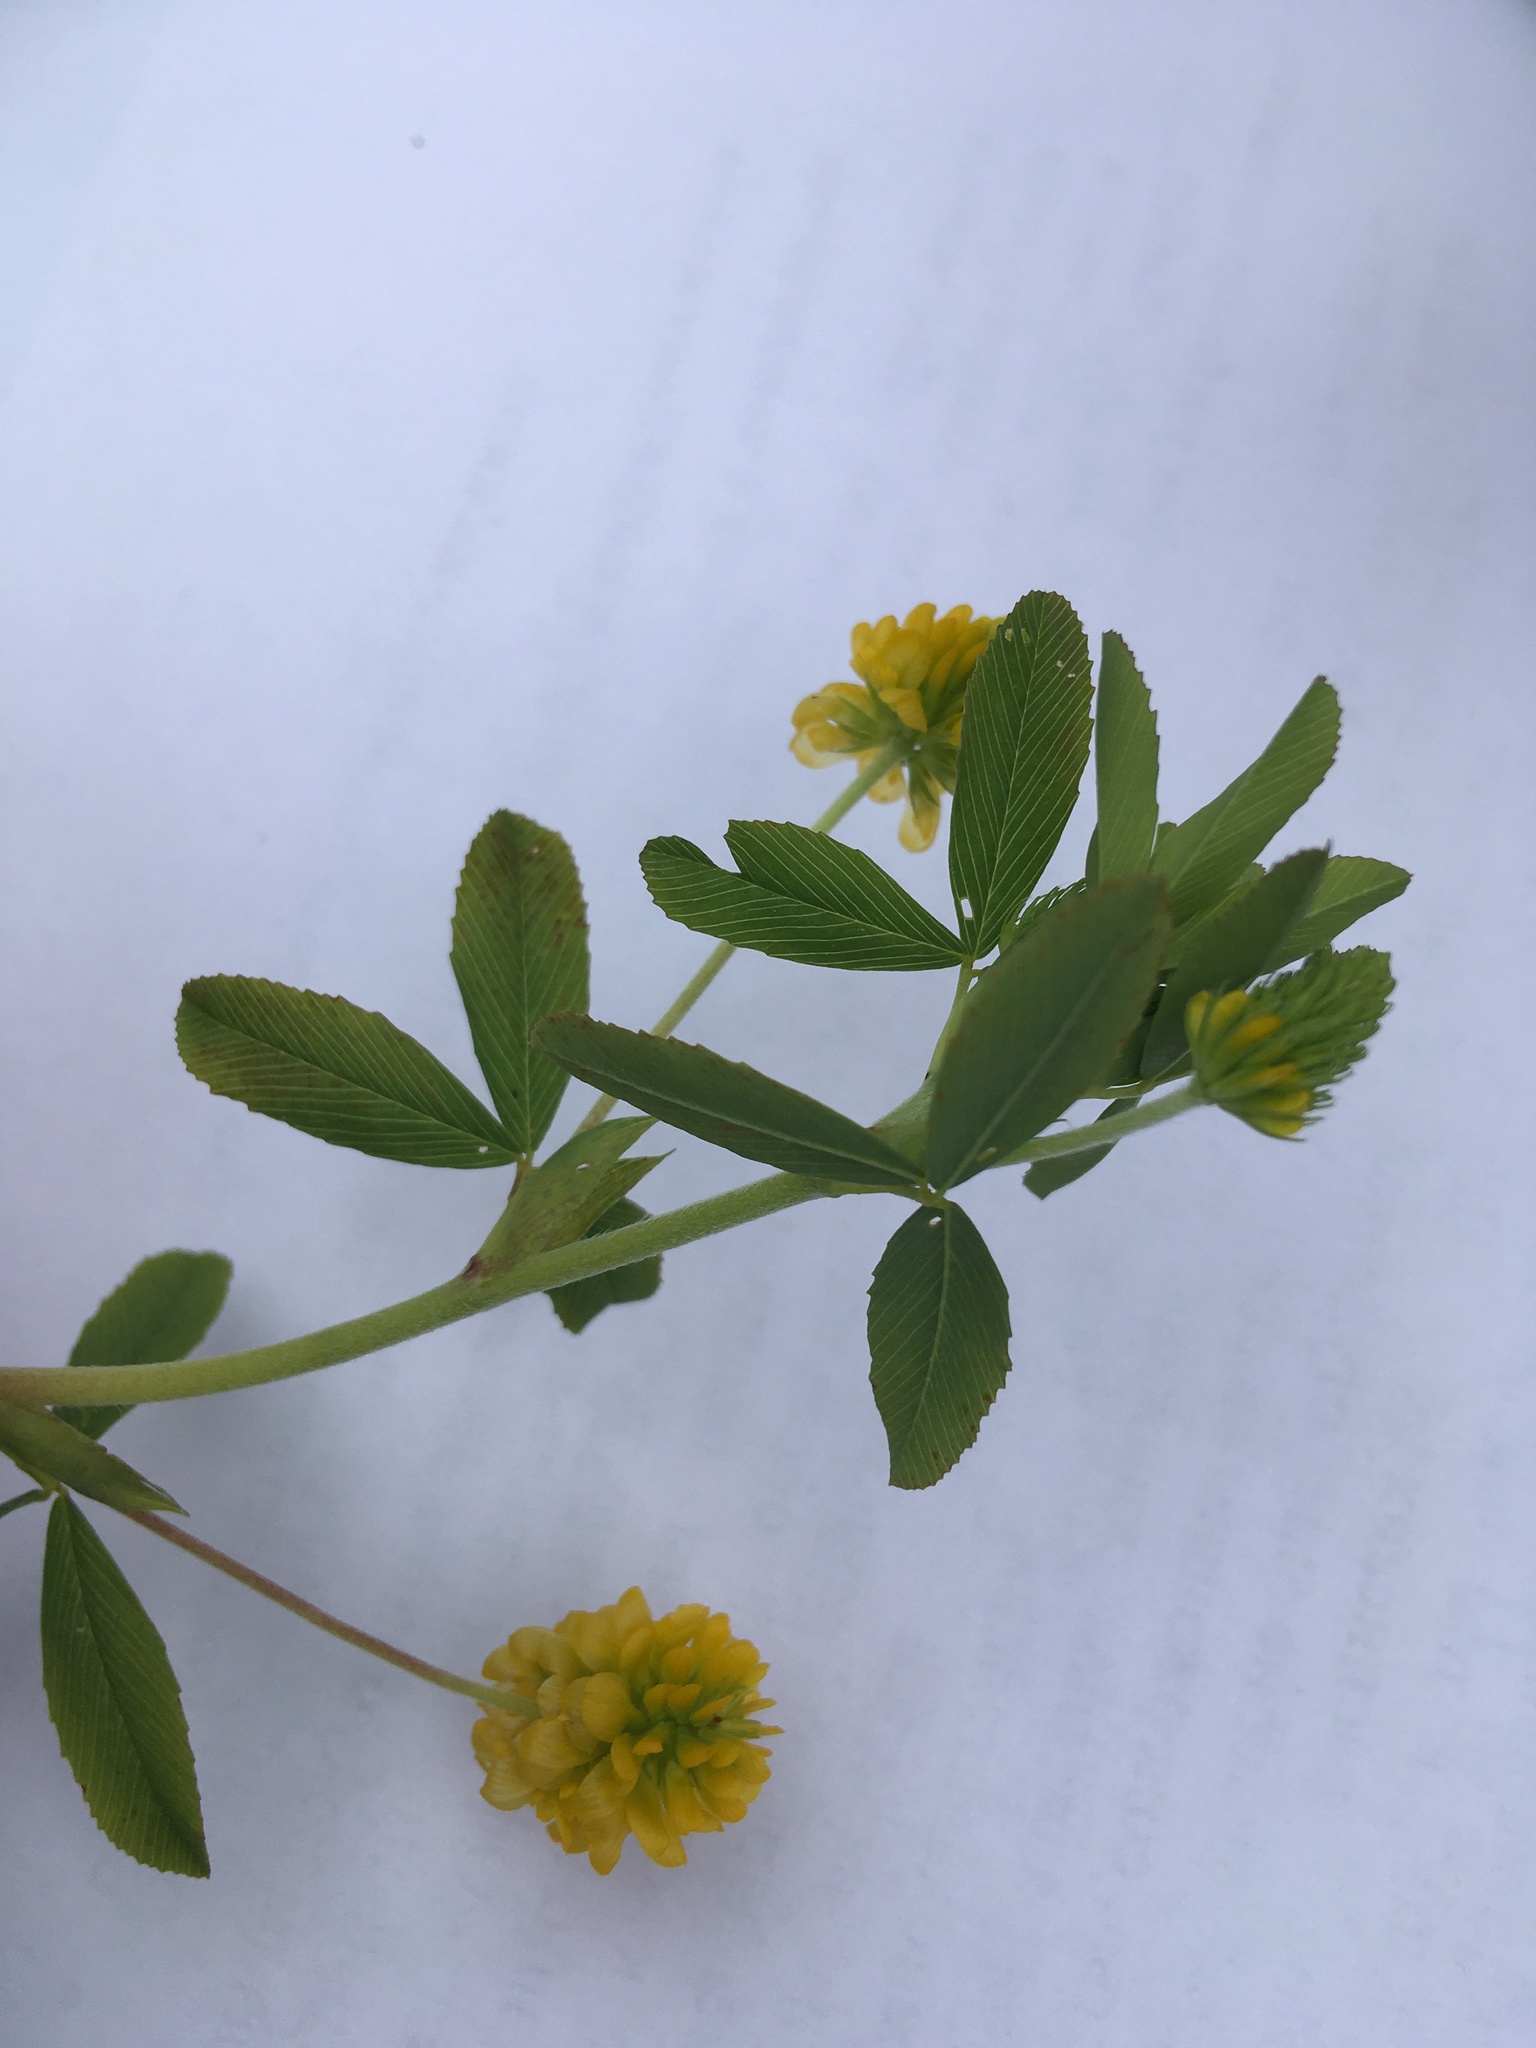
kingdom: Plantae
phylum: Tracheophyta
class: Magnoliopsida
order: Fabales
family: Fabaceae
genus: Trifolium
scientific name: Trifolium aureum
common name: Golden clover
